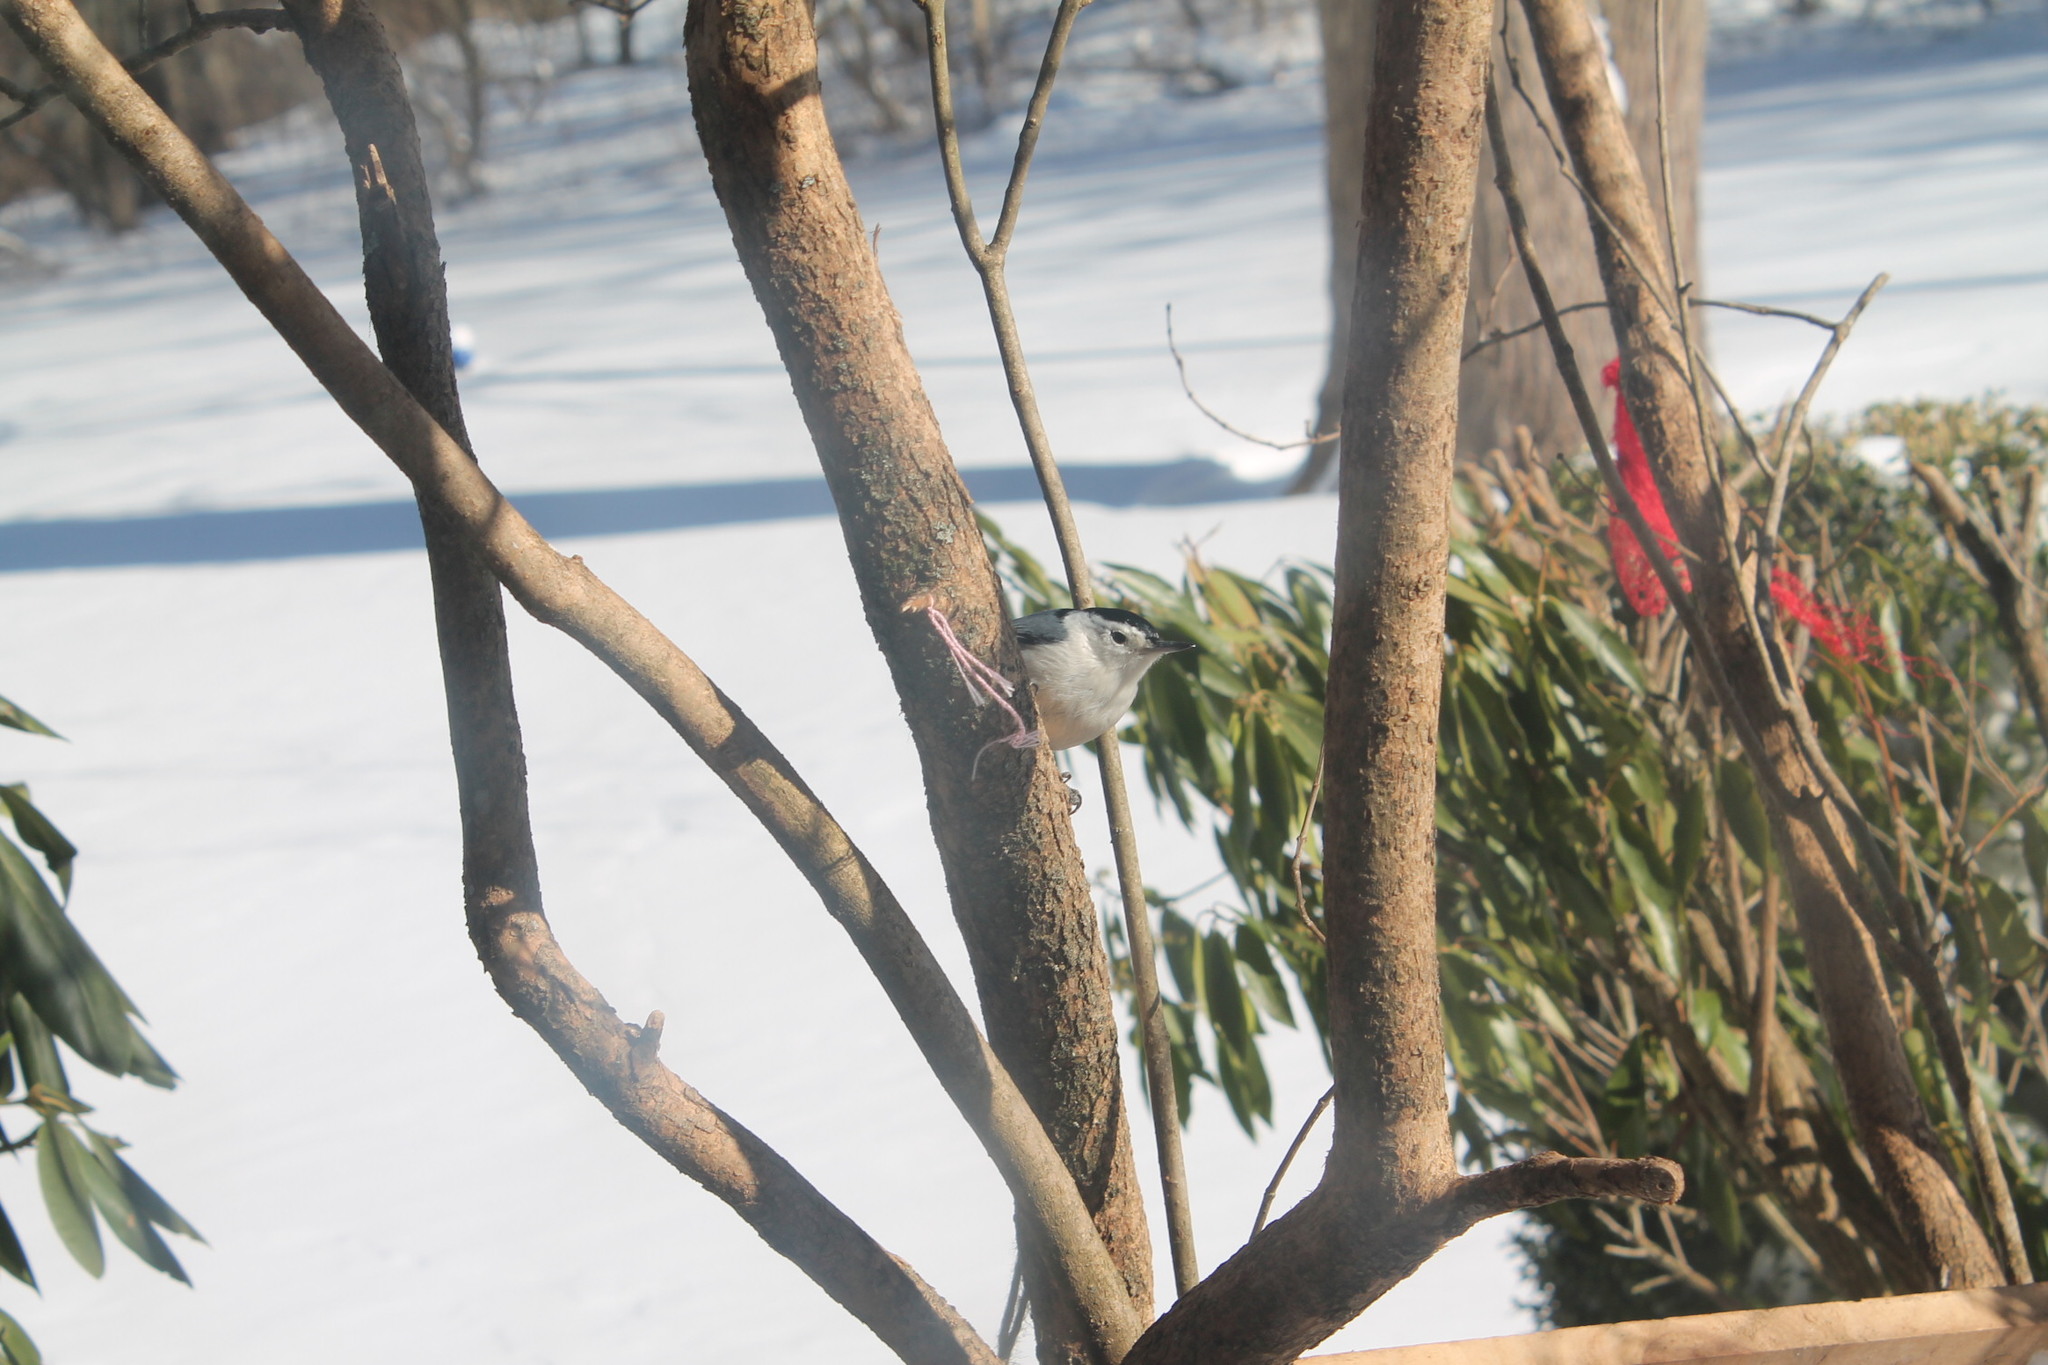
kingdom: Animalia
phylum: Chordata
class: Aves
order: Passeriformes
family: Sittidae
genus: Sitta
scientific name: Sitta carolinensis
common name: White-breasted nuthatch
